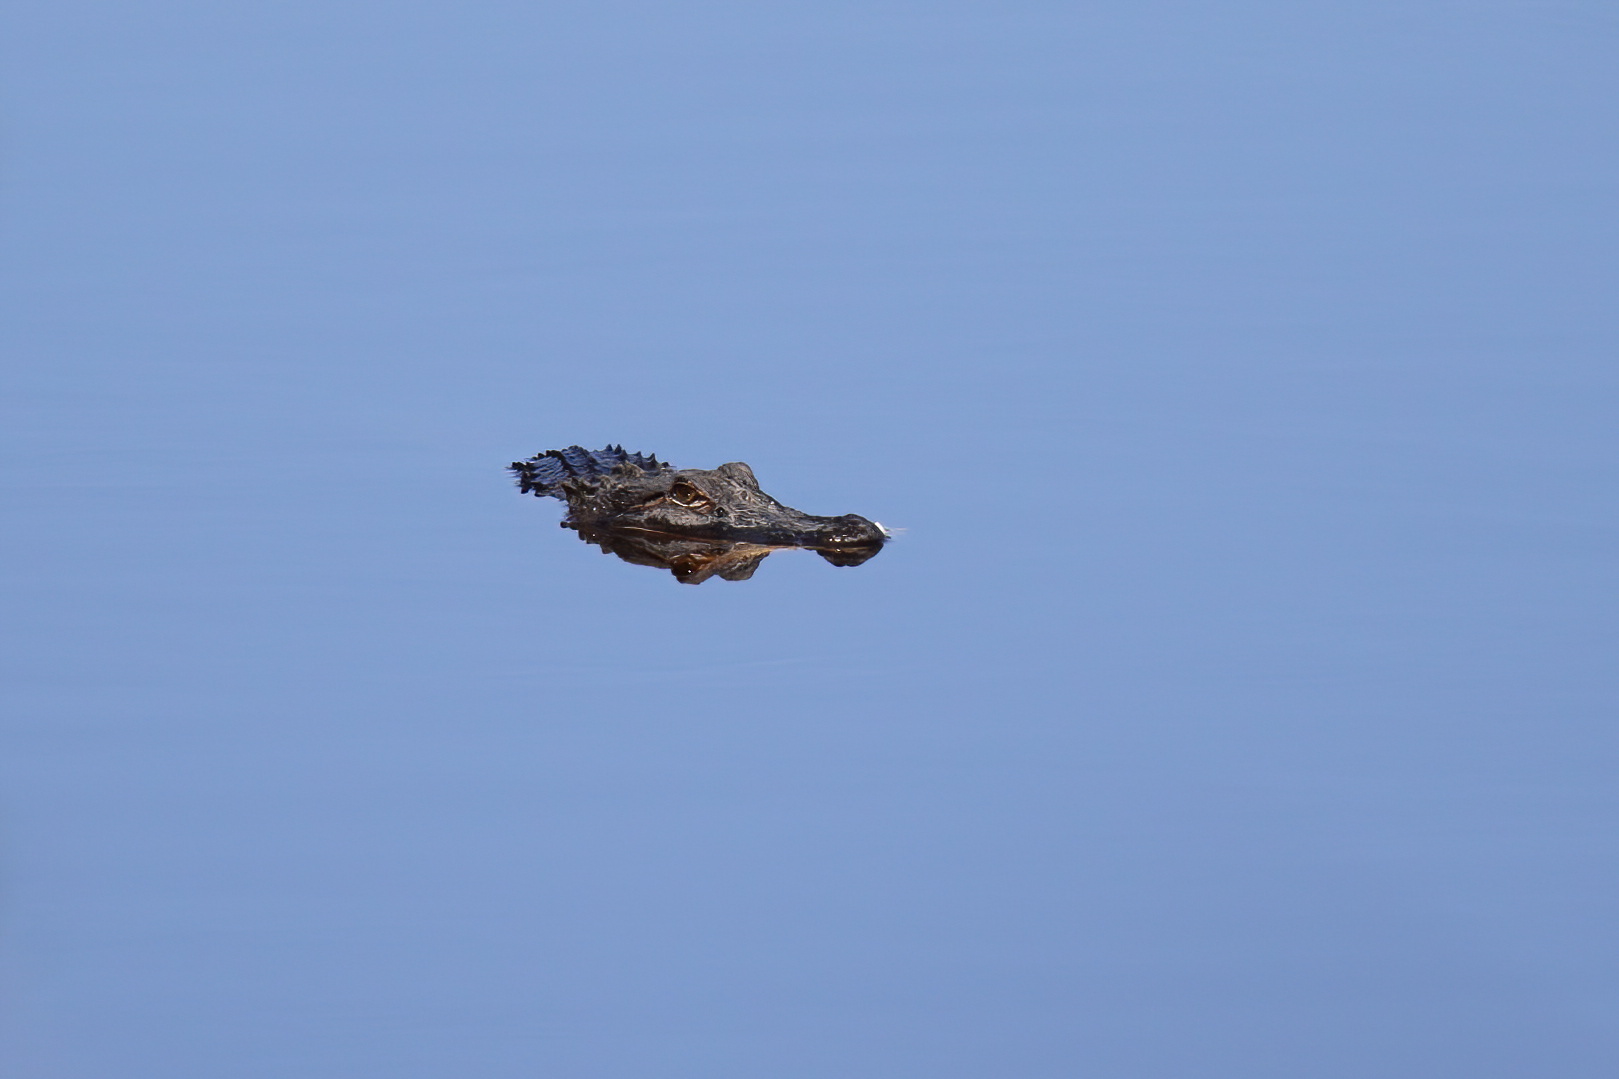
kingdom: Animalia
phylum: Chordata
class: Crocodylia
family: Alligatoridae
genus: Alligator
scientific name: Alligator mississippiensis
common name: American alligator
